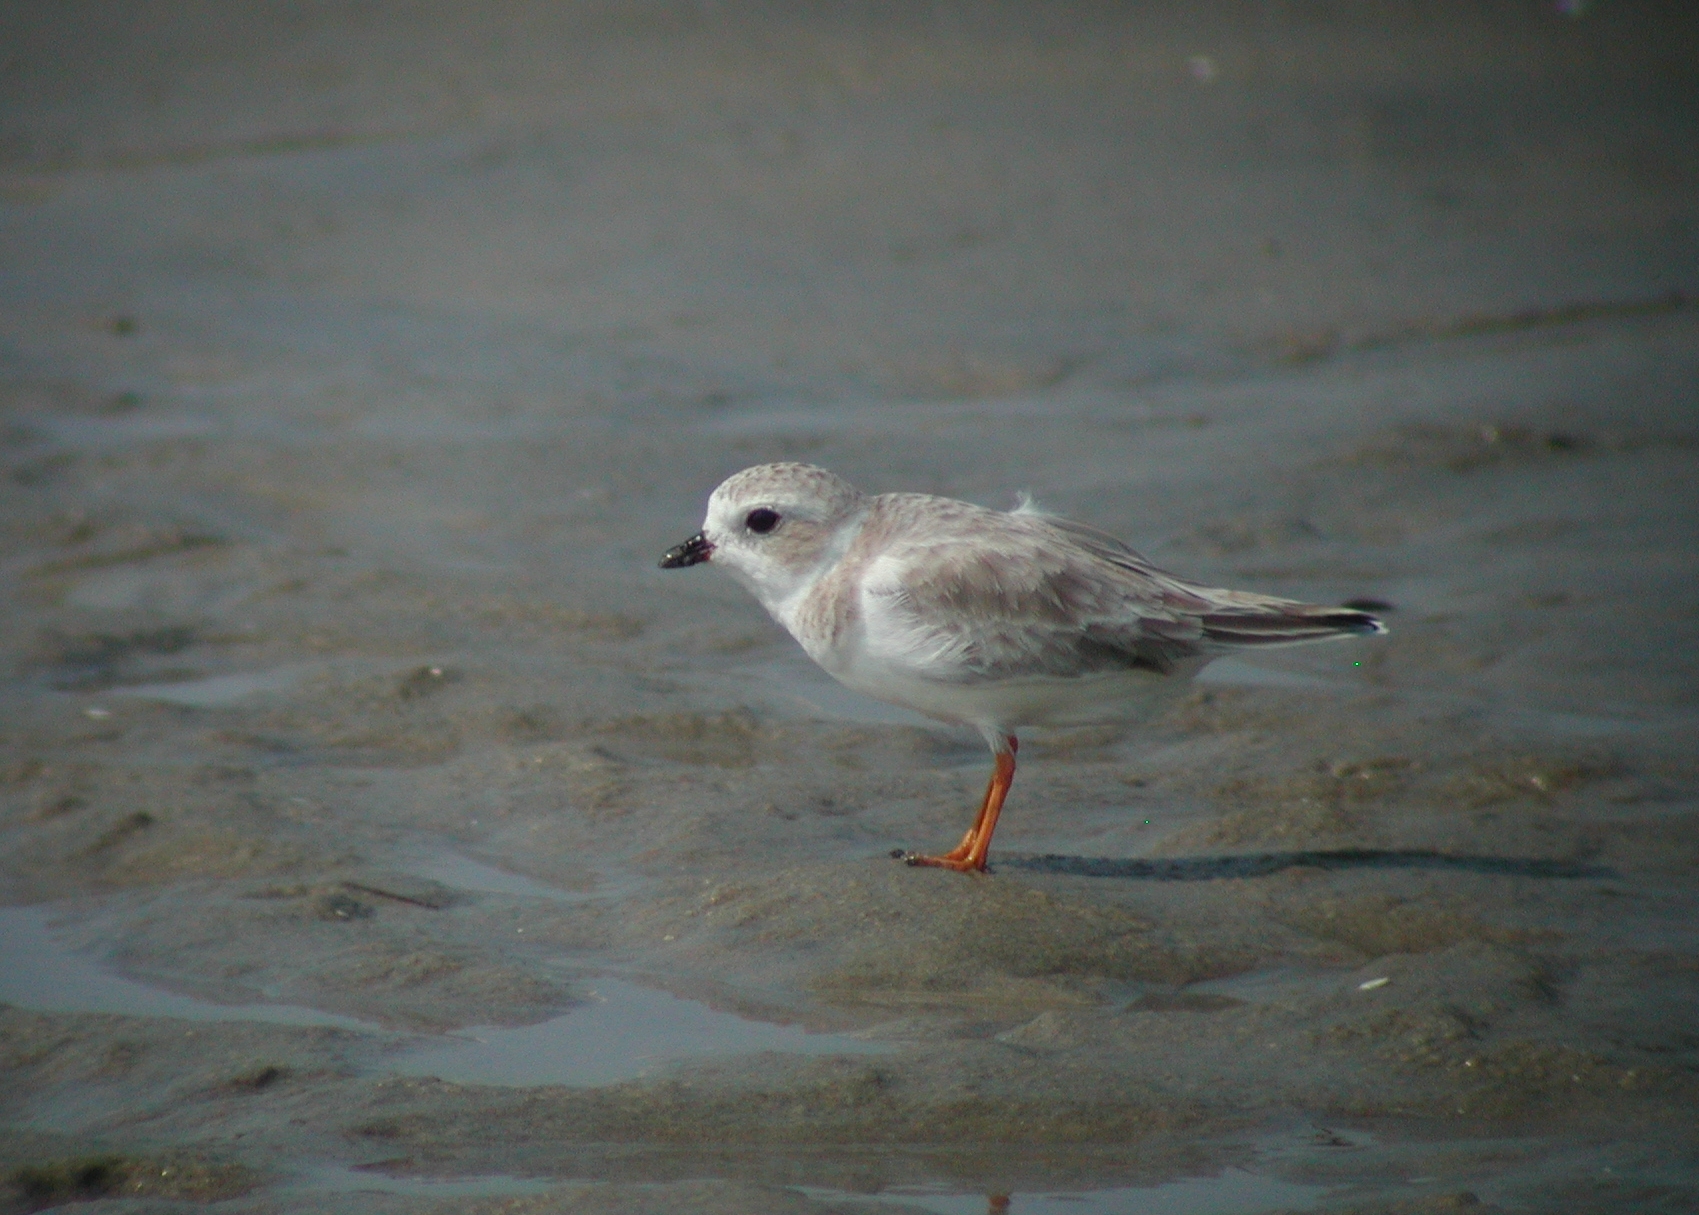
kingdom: Animalia
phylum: Chordata
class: Aves
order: Charadriiformes
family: Charadriidae
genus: Charadrius
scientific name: Charadrius melodus
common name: Piping plover
